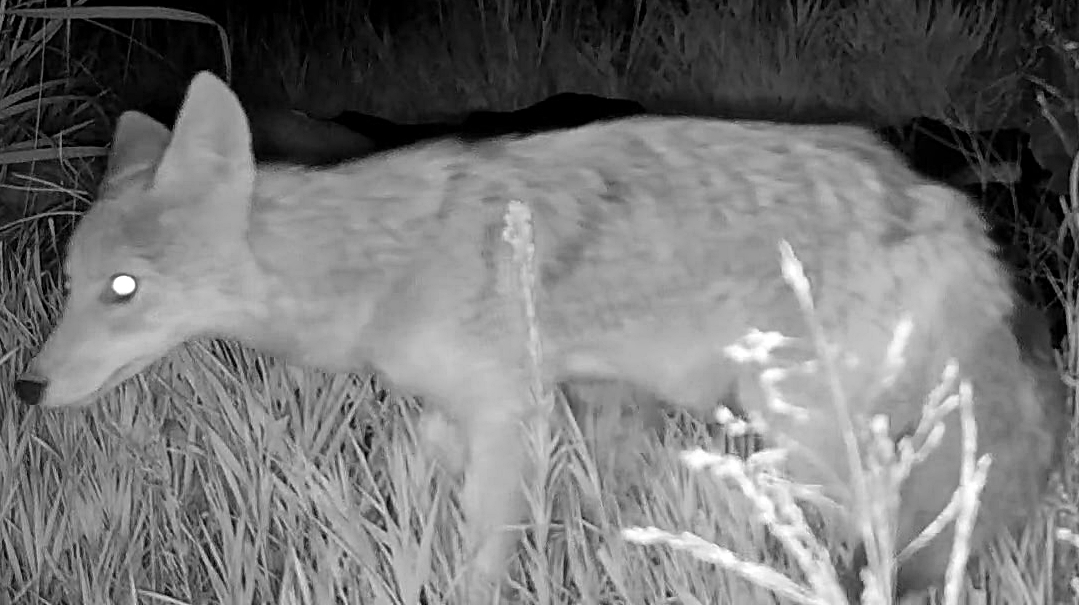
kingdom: Animalia
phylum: Chordata
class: Mammalia
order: Carnivora
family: Canidae
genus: Canis
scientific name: Canis latrans
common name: Coyote
